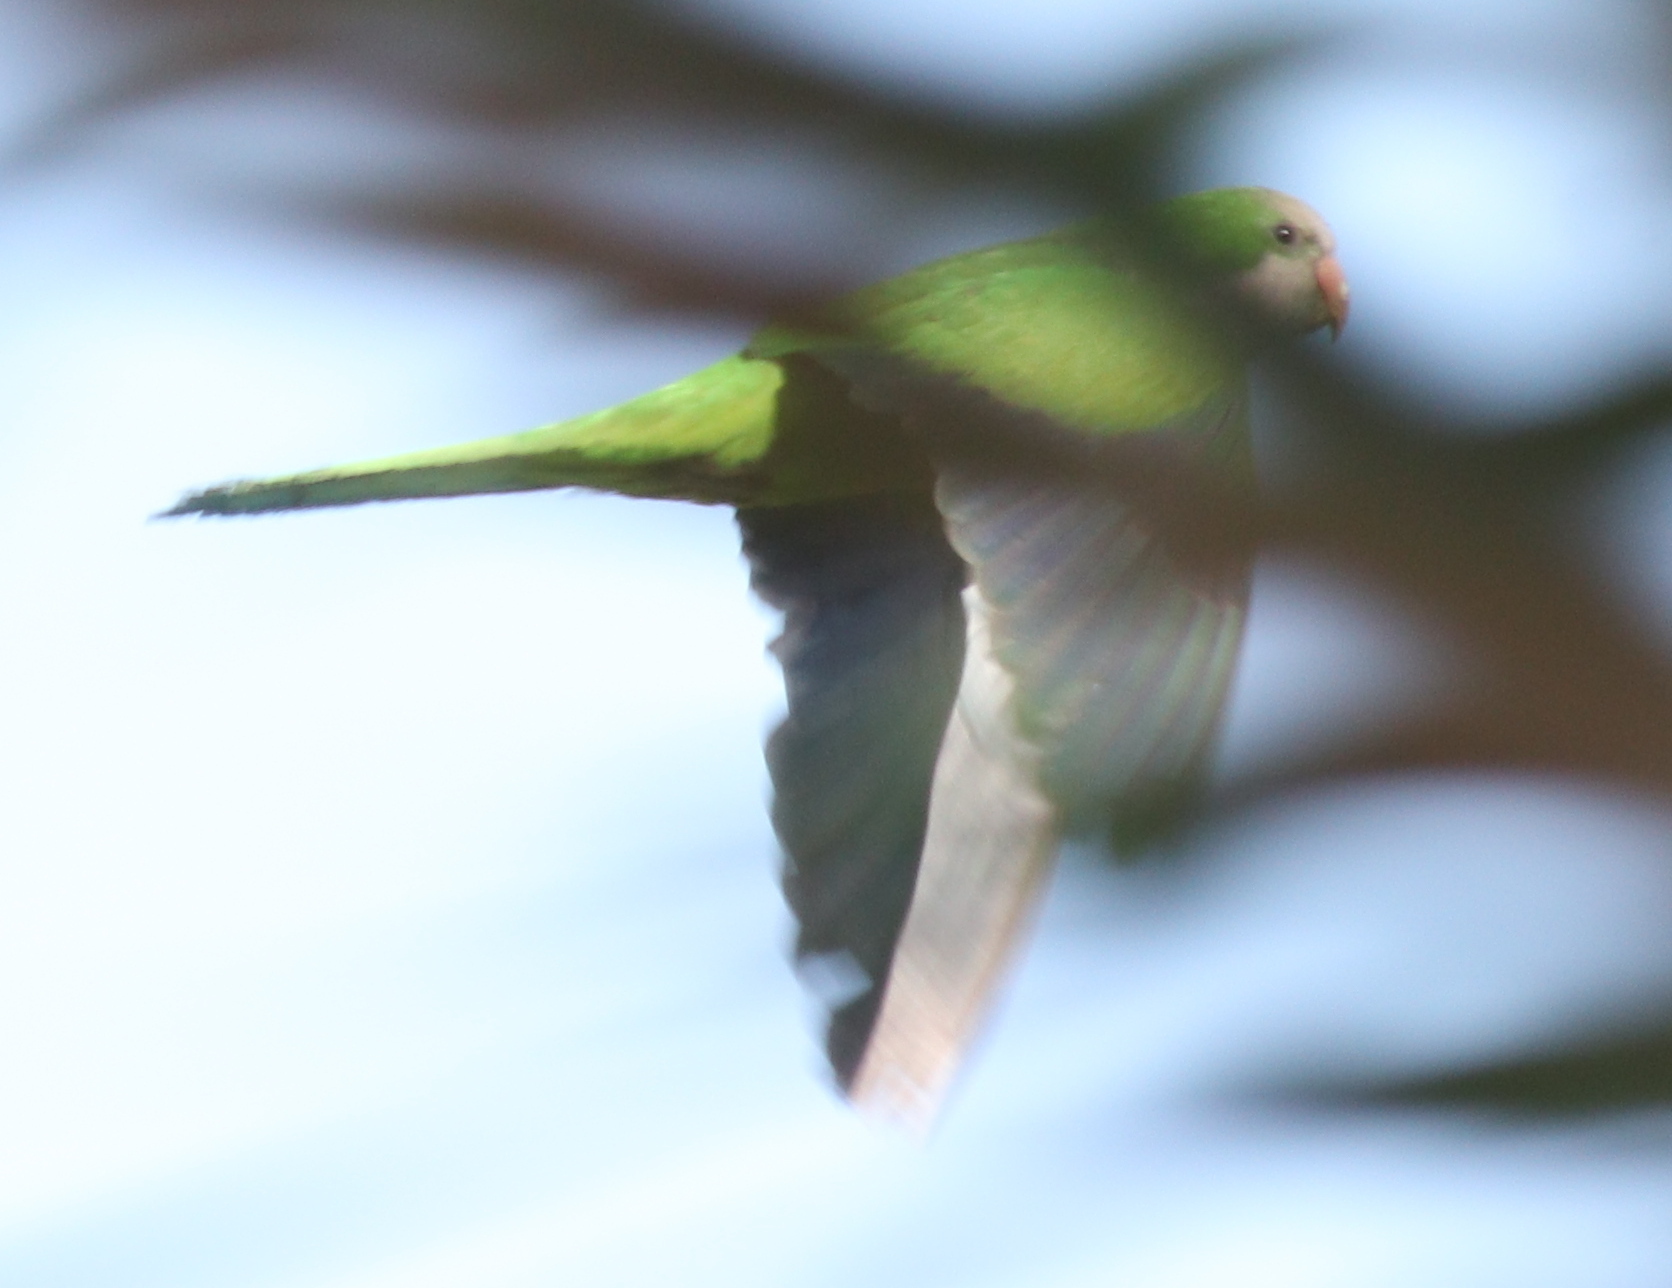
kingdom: Animalia
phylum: Chordata
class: Aves
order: Psittaciformes
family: Psittacidae
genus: Myiopsitta
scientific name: Myiopsitta monachus
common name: Monk parakeet
